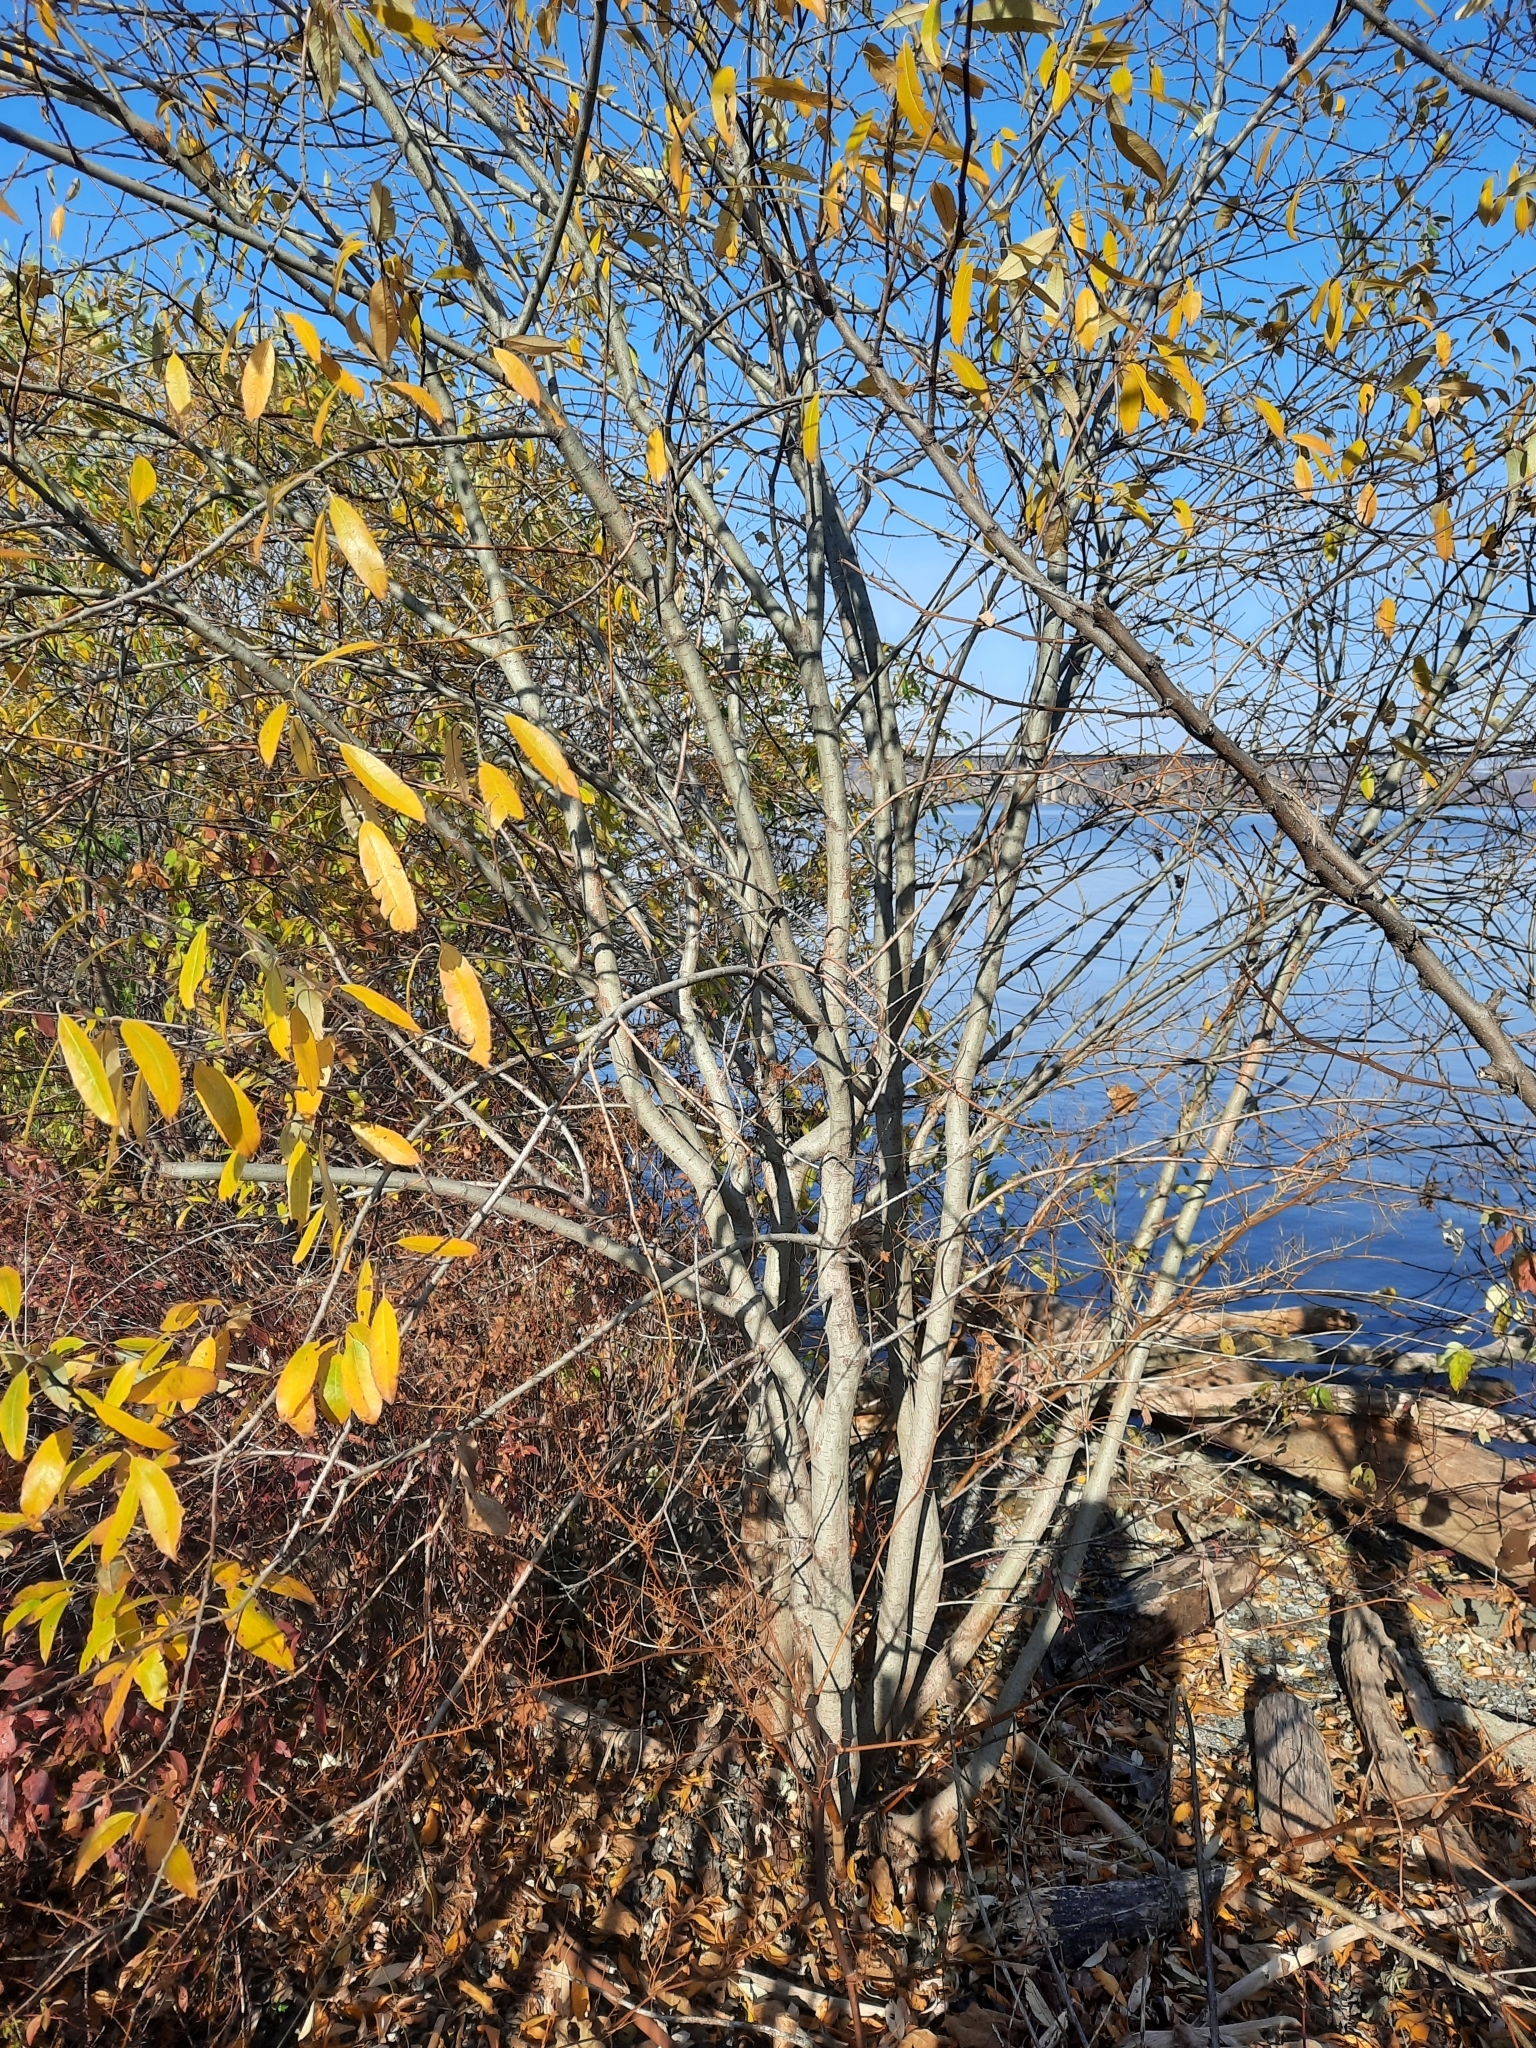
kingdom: Plantae
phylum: Tracheophyta
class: Magnoliopsida
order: Magnoliales
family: Magnoliaceae
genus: Magnolia
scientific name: Magnolia virginiana
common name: Swamp bay
